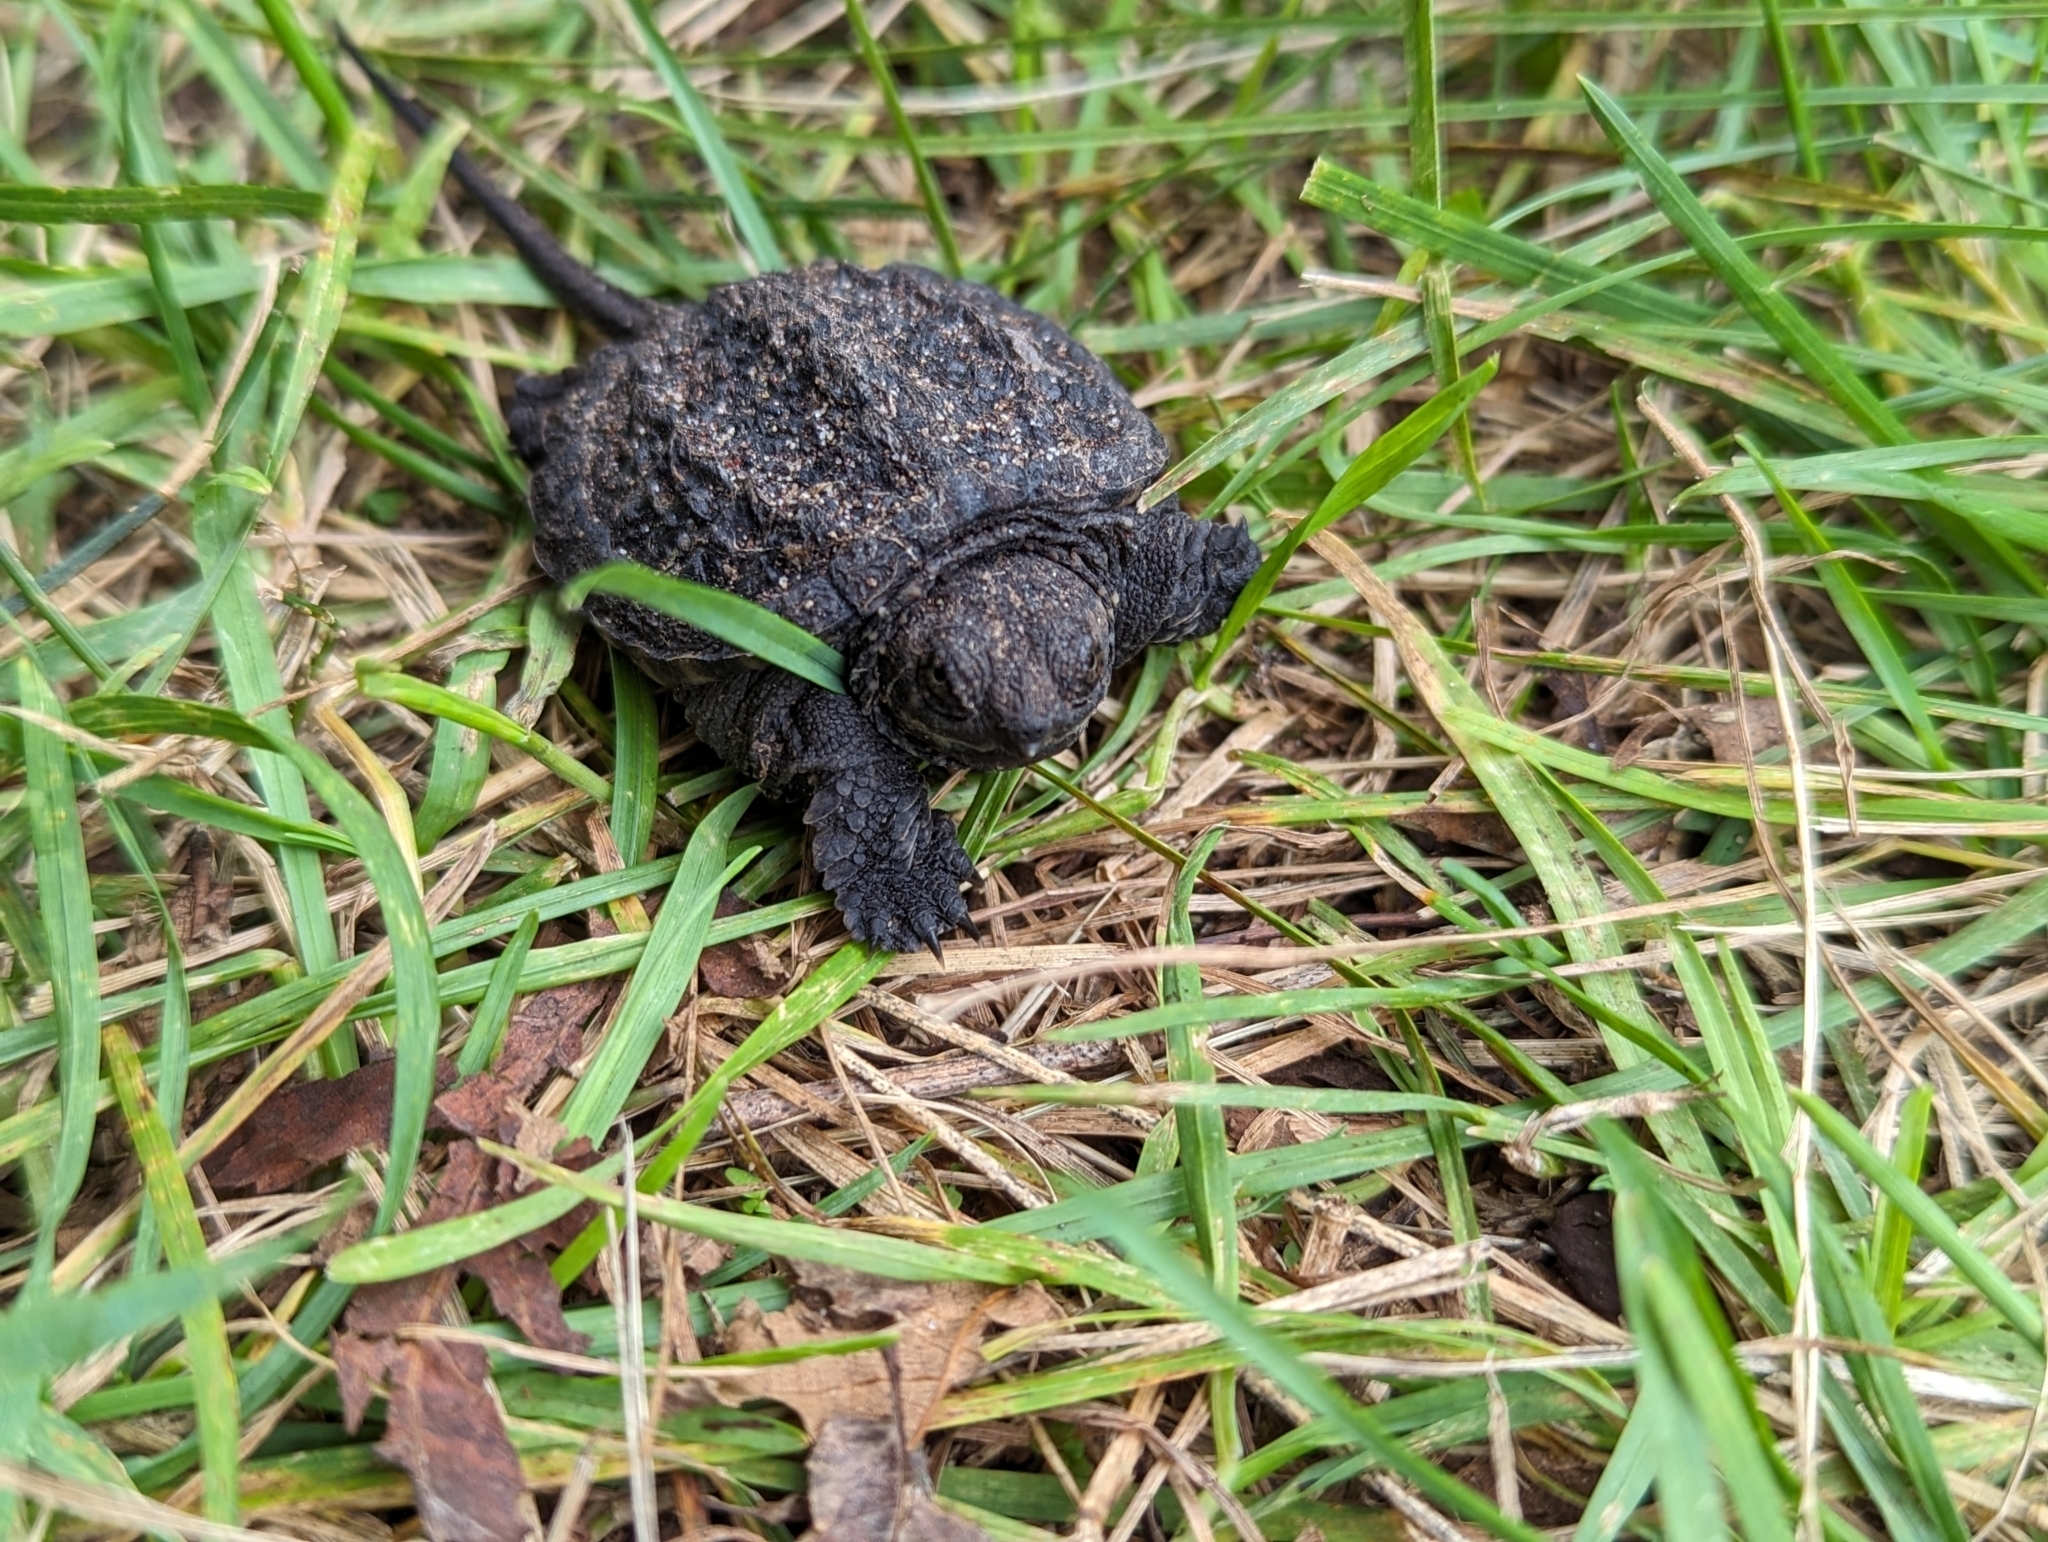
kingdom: Animalia
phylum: Chordata
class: Testudines
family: Chelydridae
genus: Chelydra
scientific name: Chelydra serpentina
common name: Common snapping turtle
